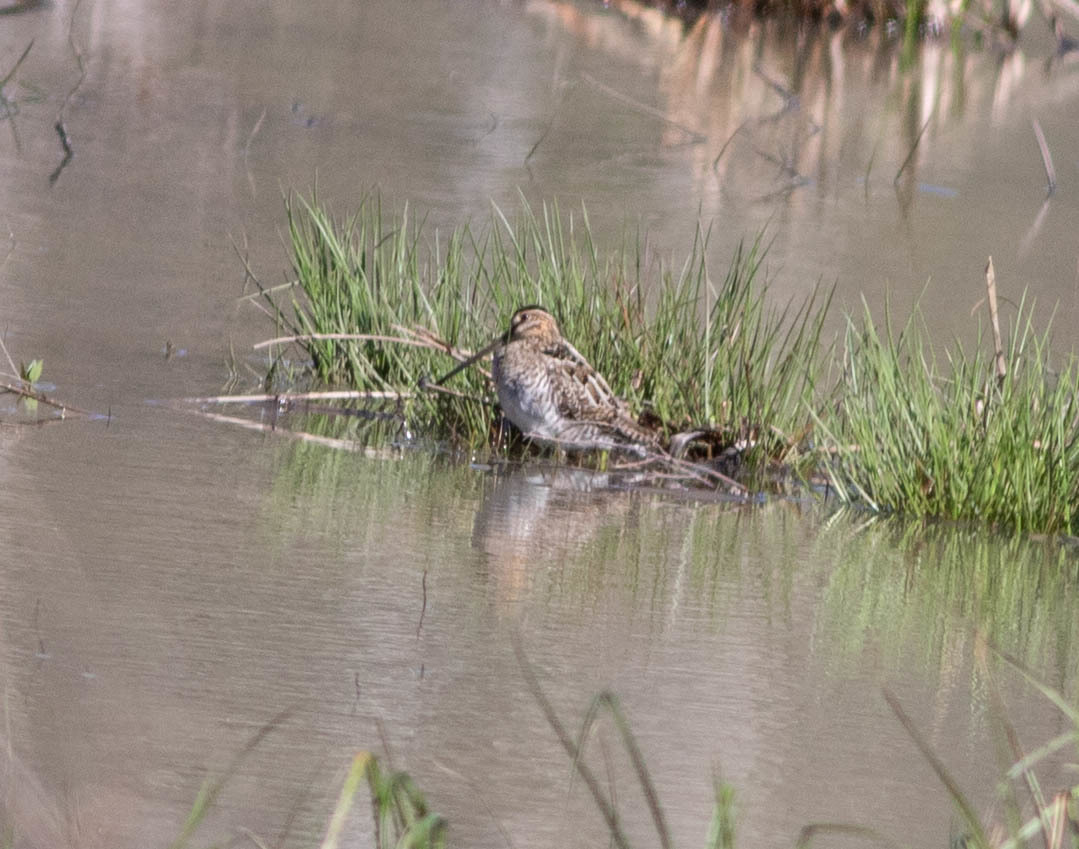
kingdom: Animalia
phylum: Chordata
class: Aves
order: Charadriiformes
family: Scolopacidae
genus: Gallinago
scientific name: Gallinago delicata
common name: Wilson's snipe
